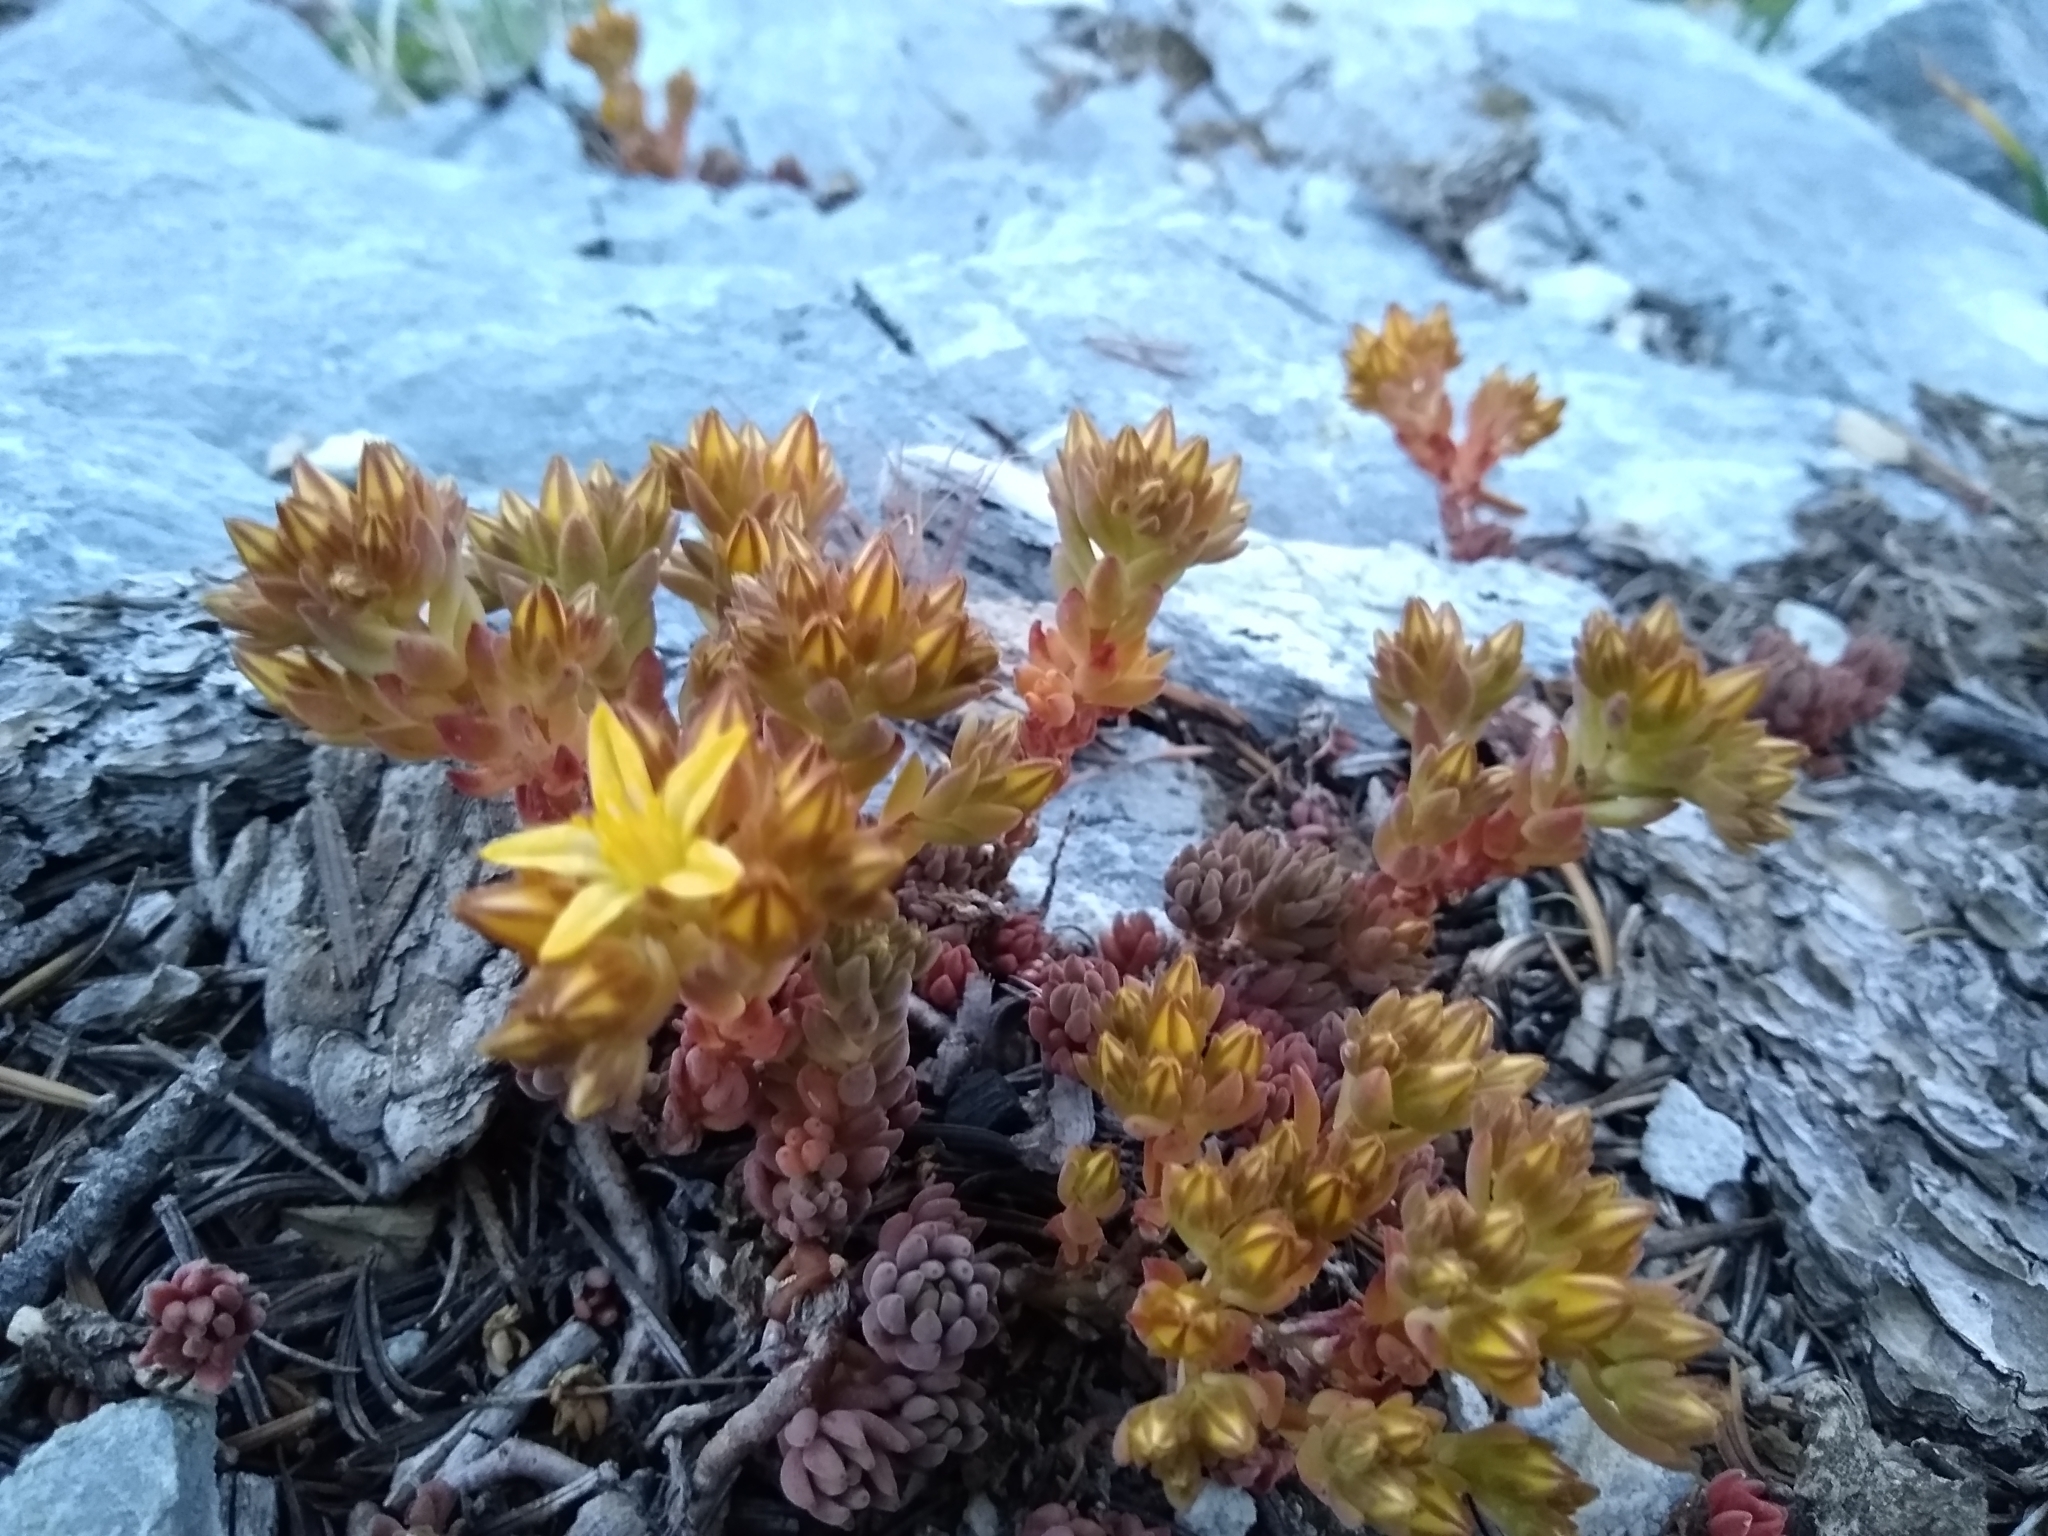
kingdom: Plantae
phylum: Tracheophyta
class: Magnoliopsida
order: Saxifragales
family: Crassulaceae
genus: Sedum
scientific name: Sedum lanceolatum
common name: Common stonecrop
